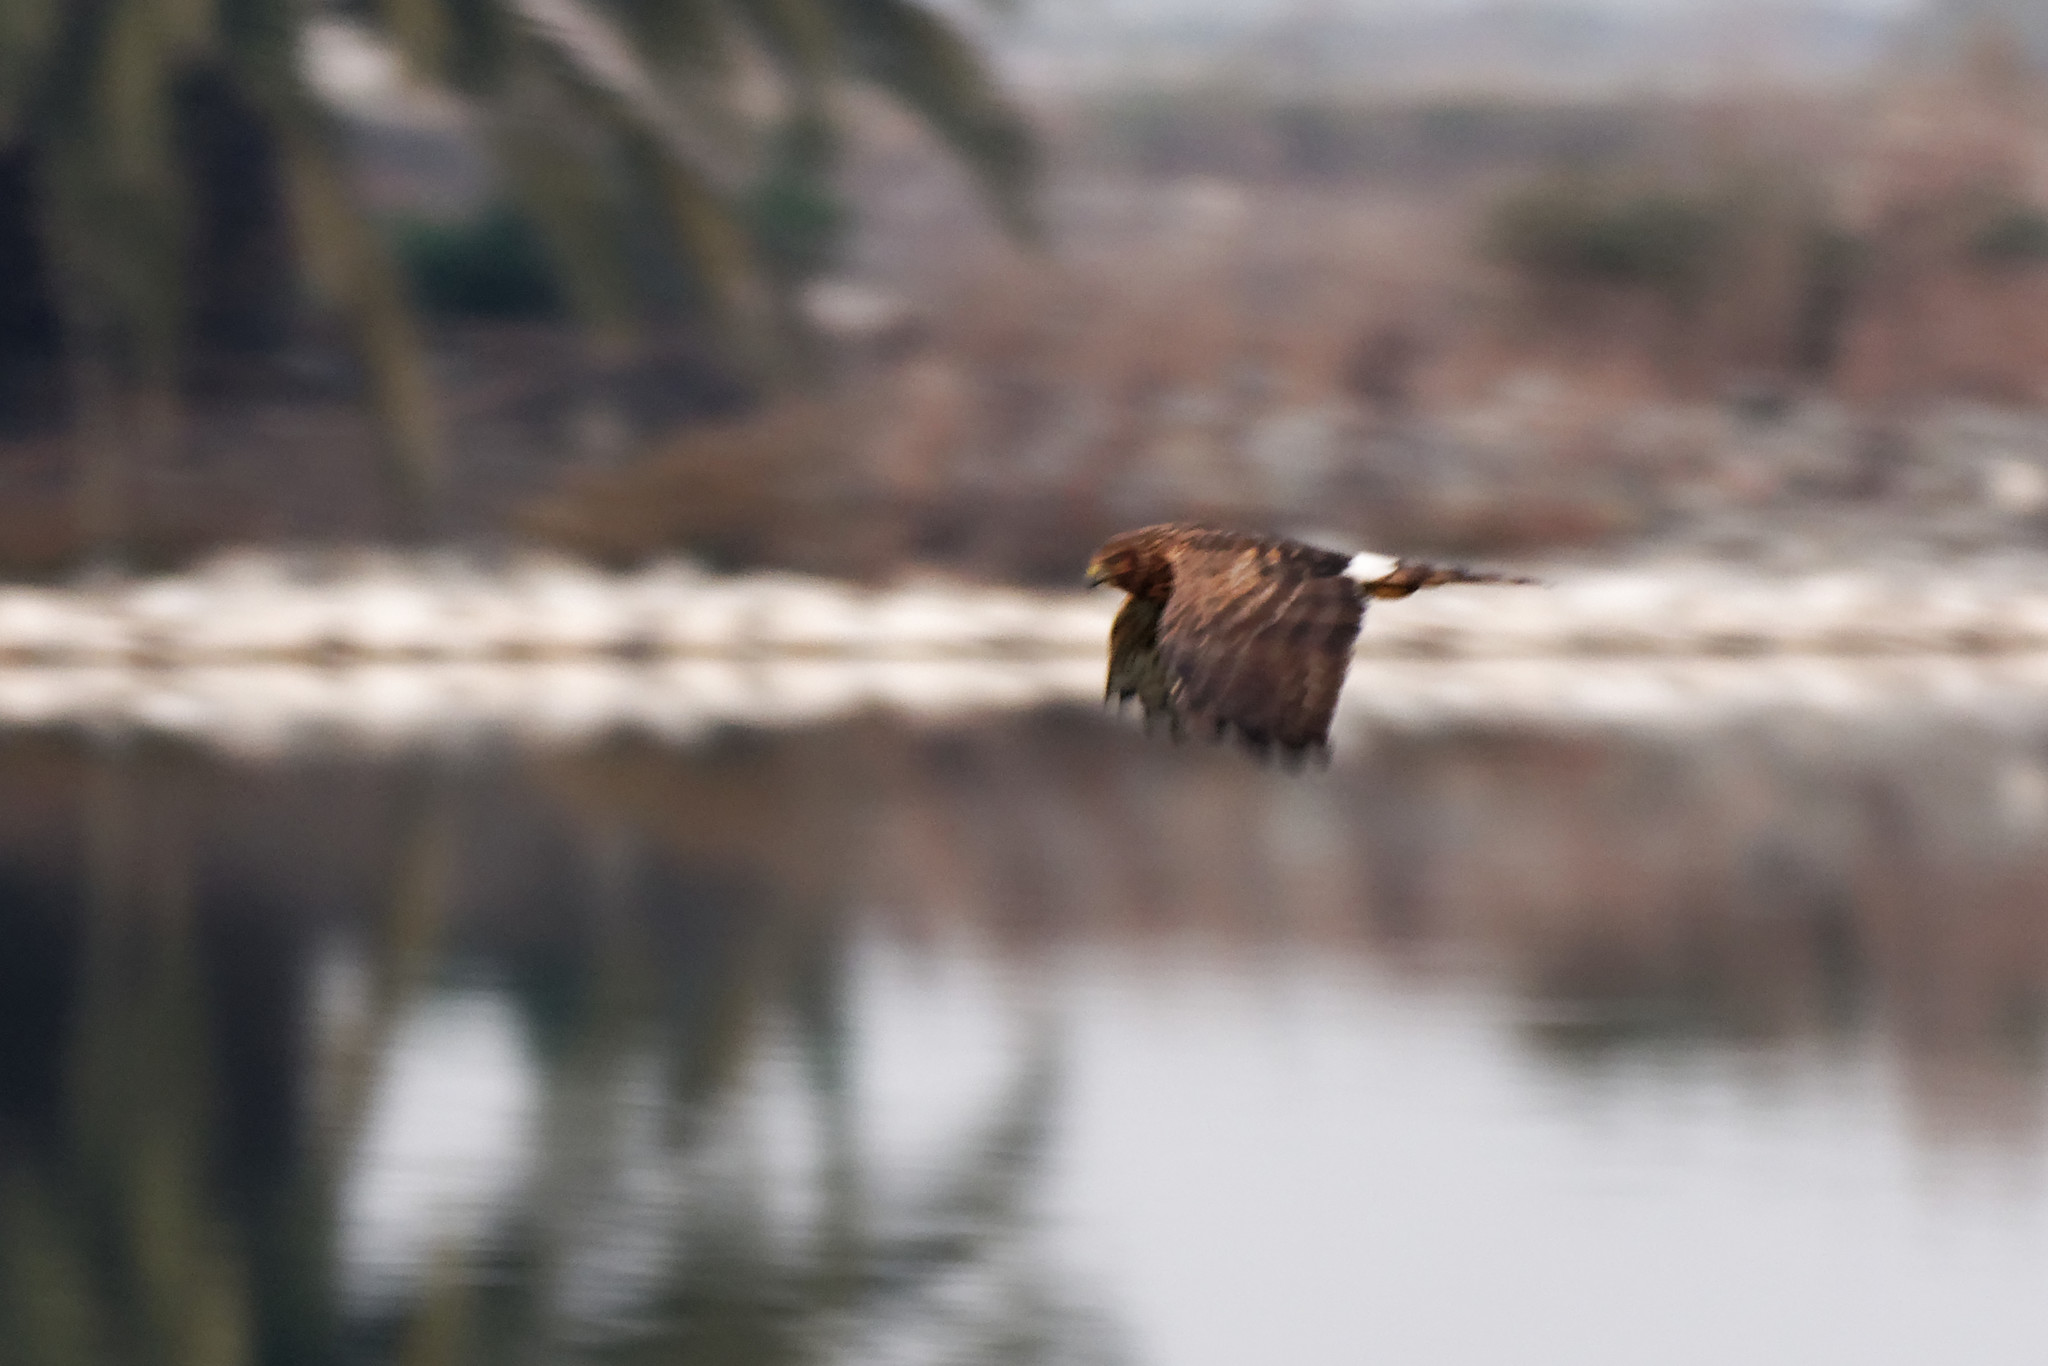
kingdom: Animalia
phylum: Chordata
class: Aves
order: Accipitriformes
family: Accipitridae
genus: Circus
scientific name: Circus cyaneus
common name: Hen harrier
